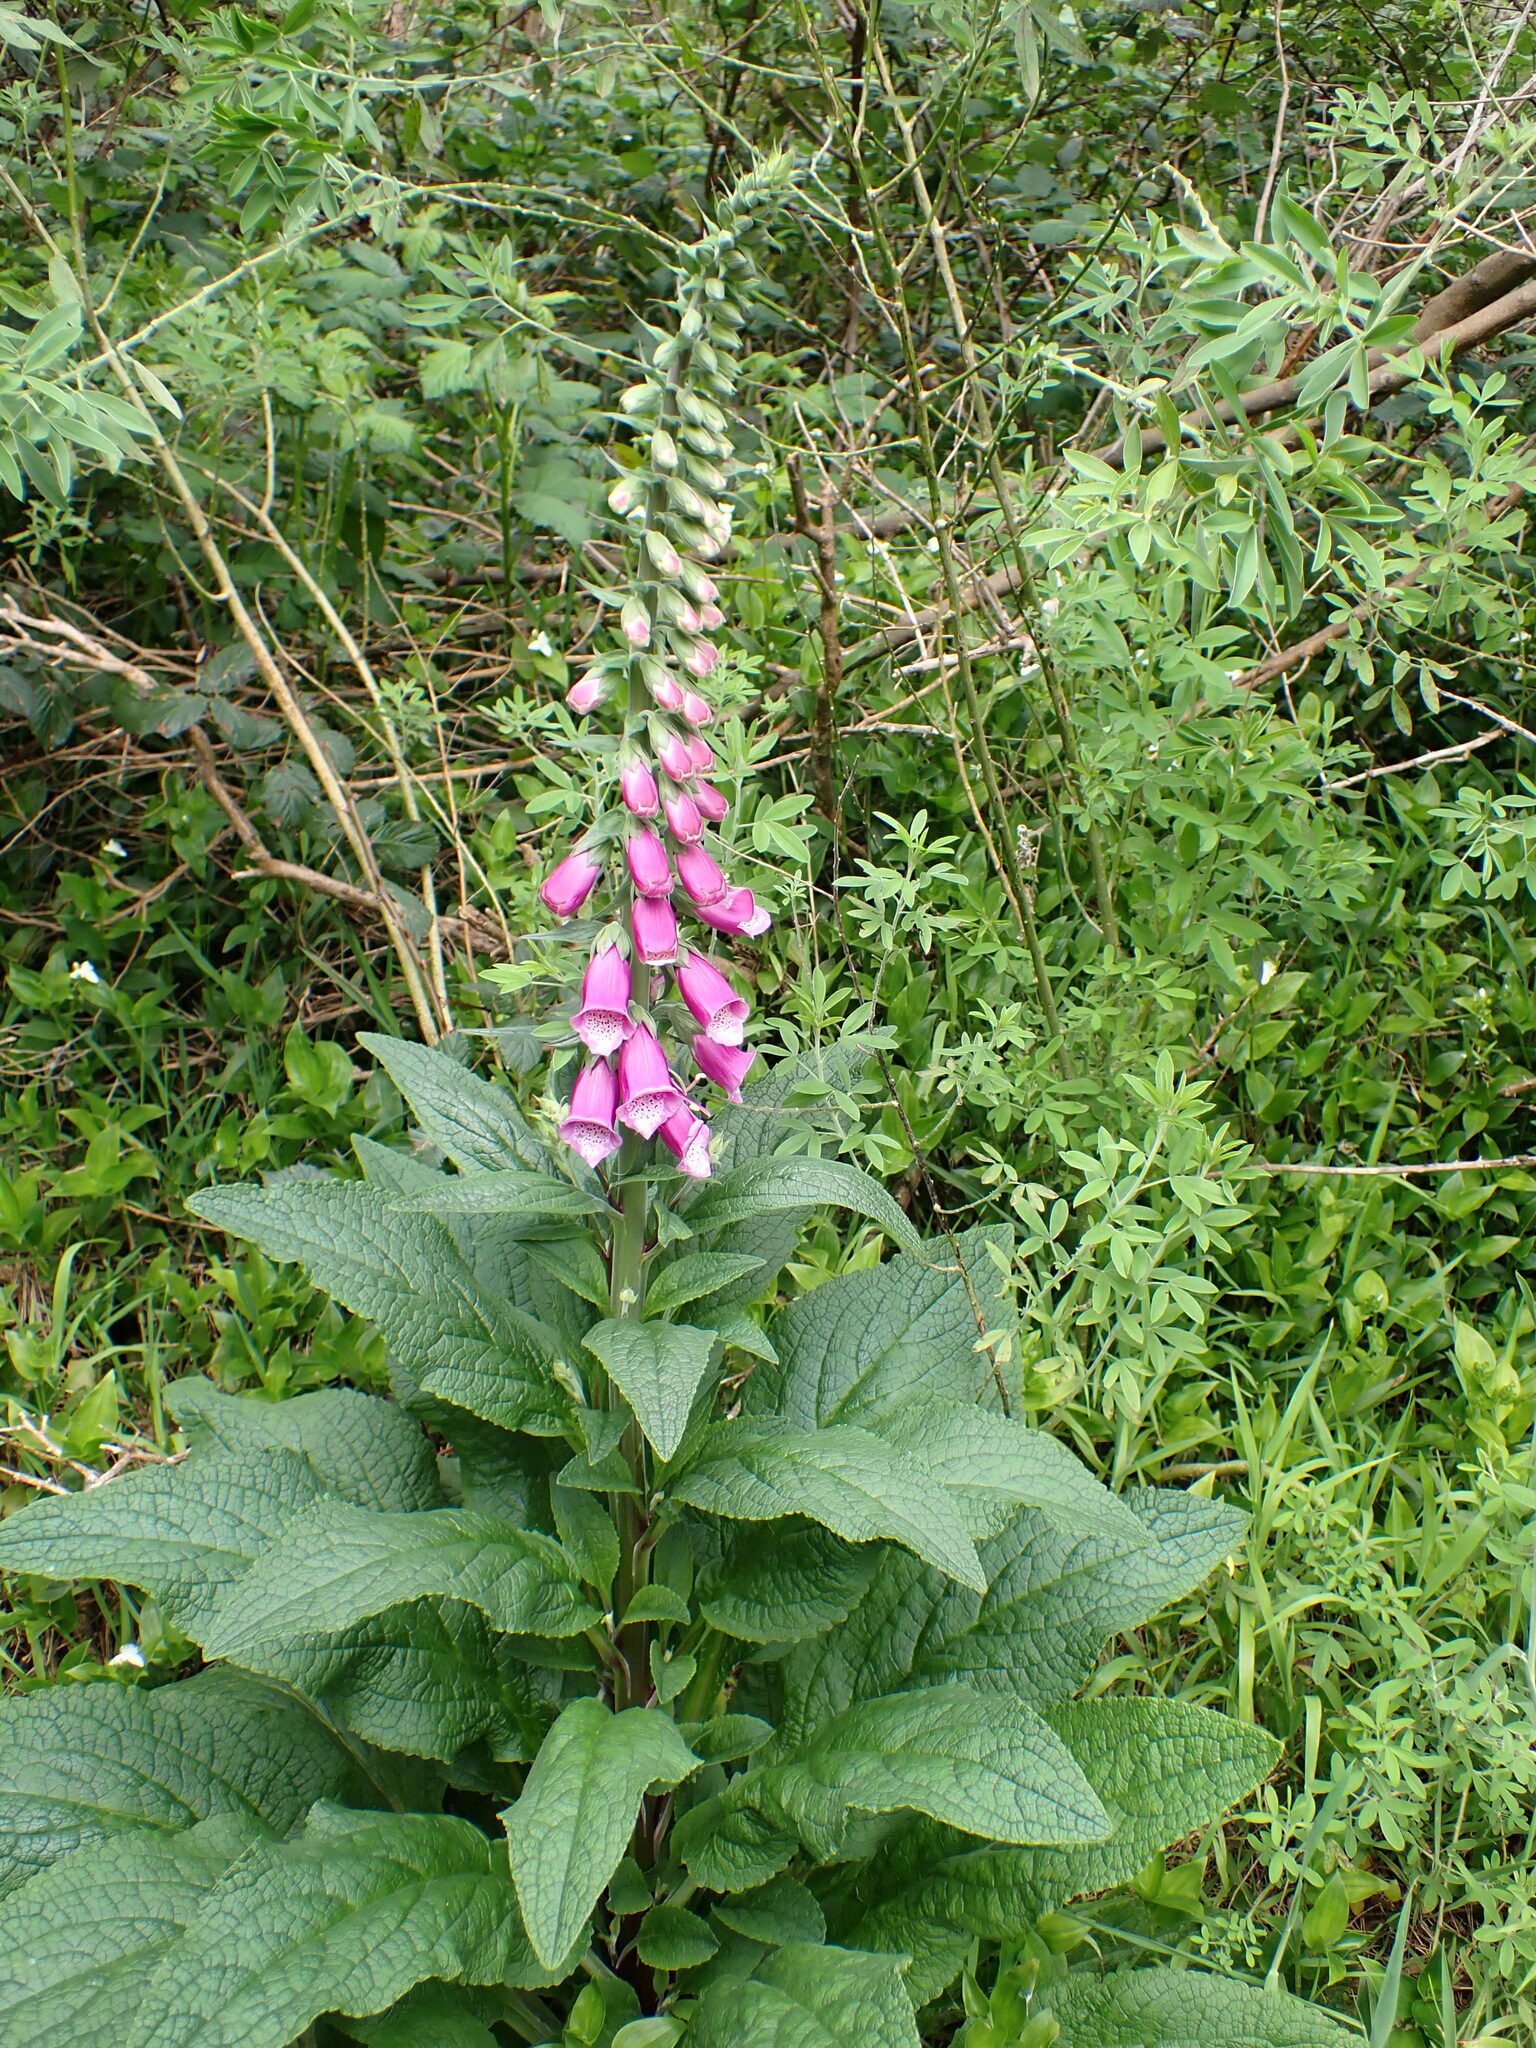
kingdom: Plantae
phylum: Tracheophyta
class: Magnoliopsida
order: Lamiales
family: Plantaginaceae
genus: Digitalis
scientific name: Digitalis purpurea
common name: Foxglove
